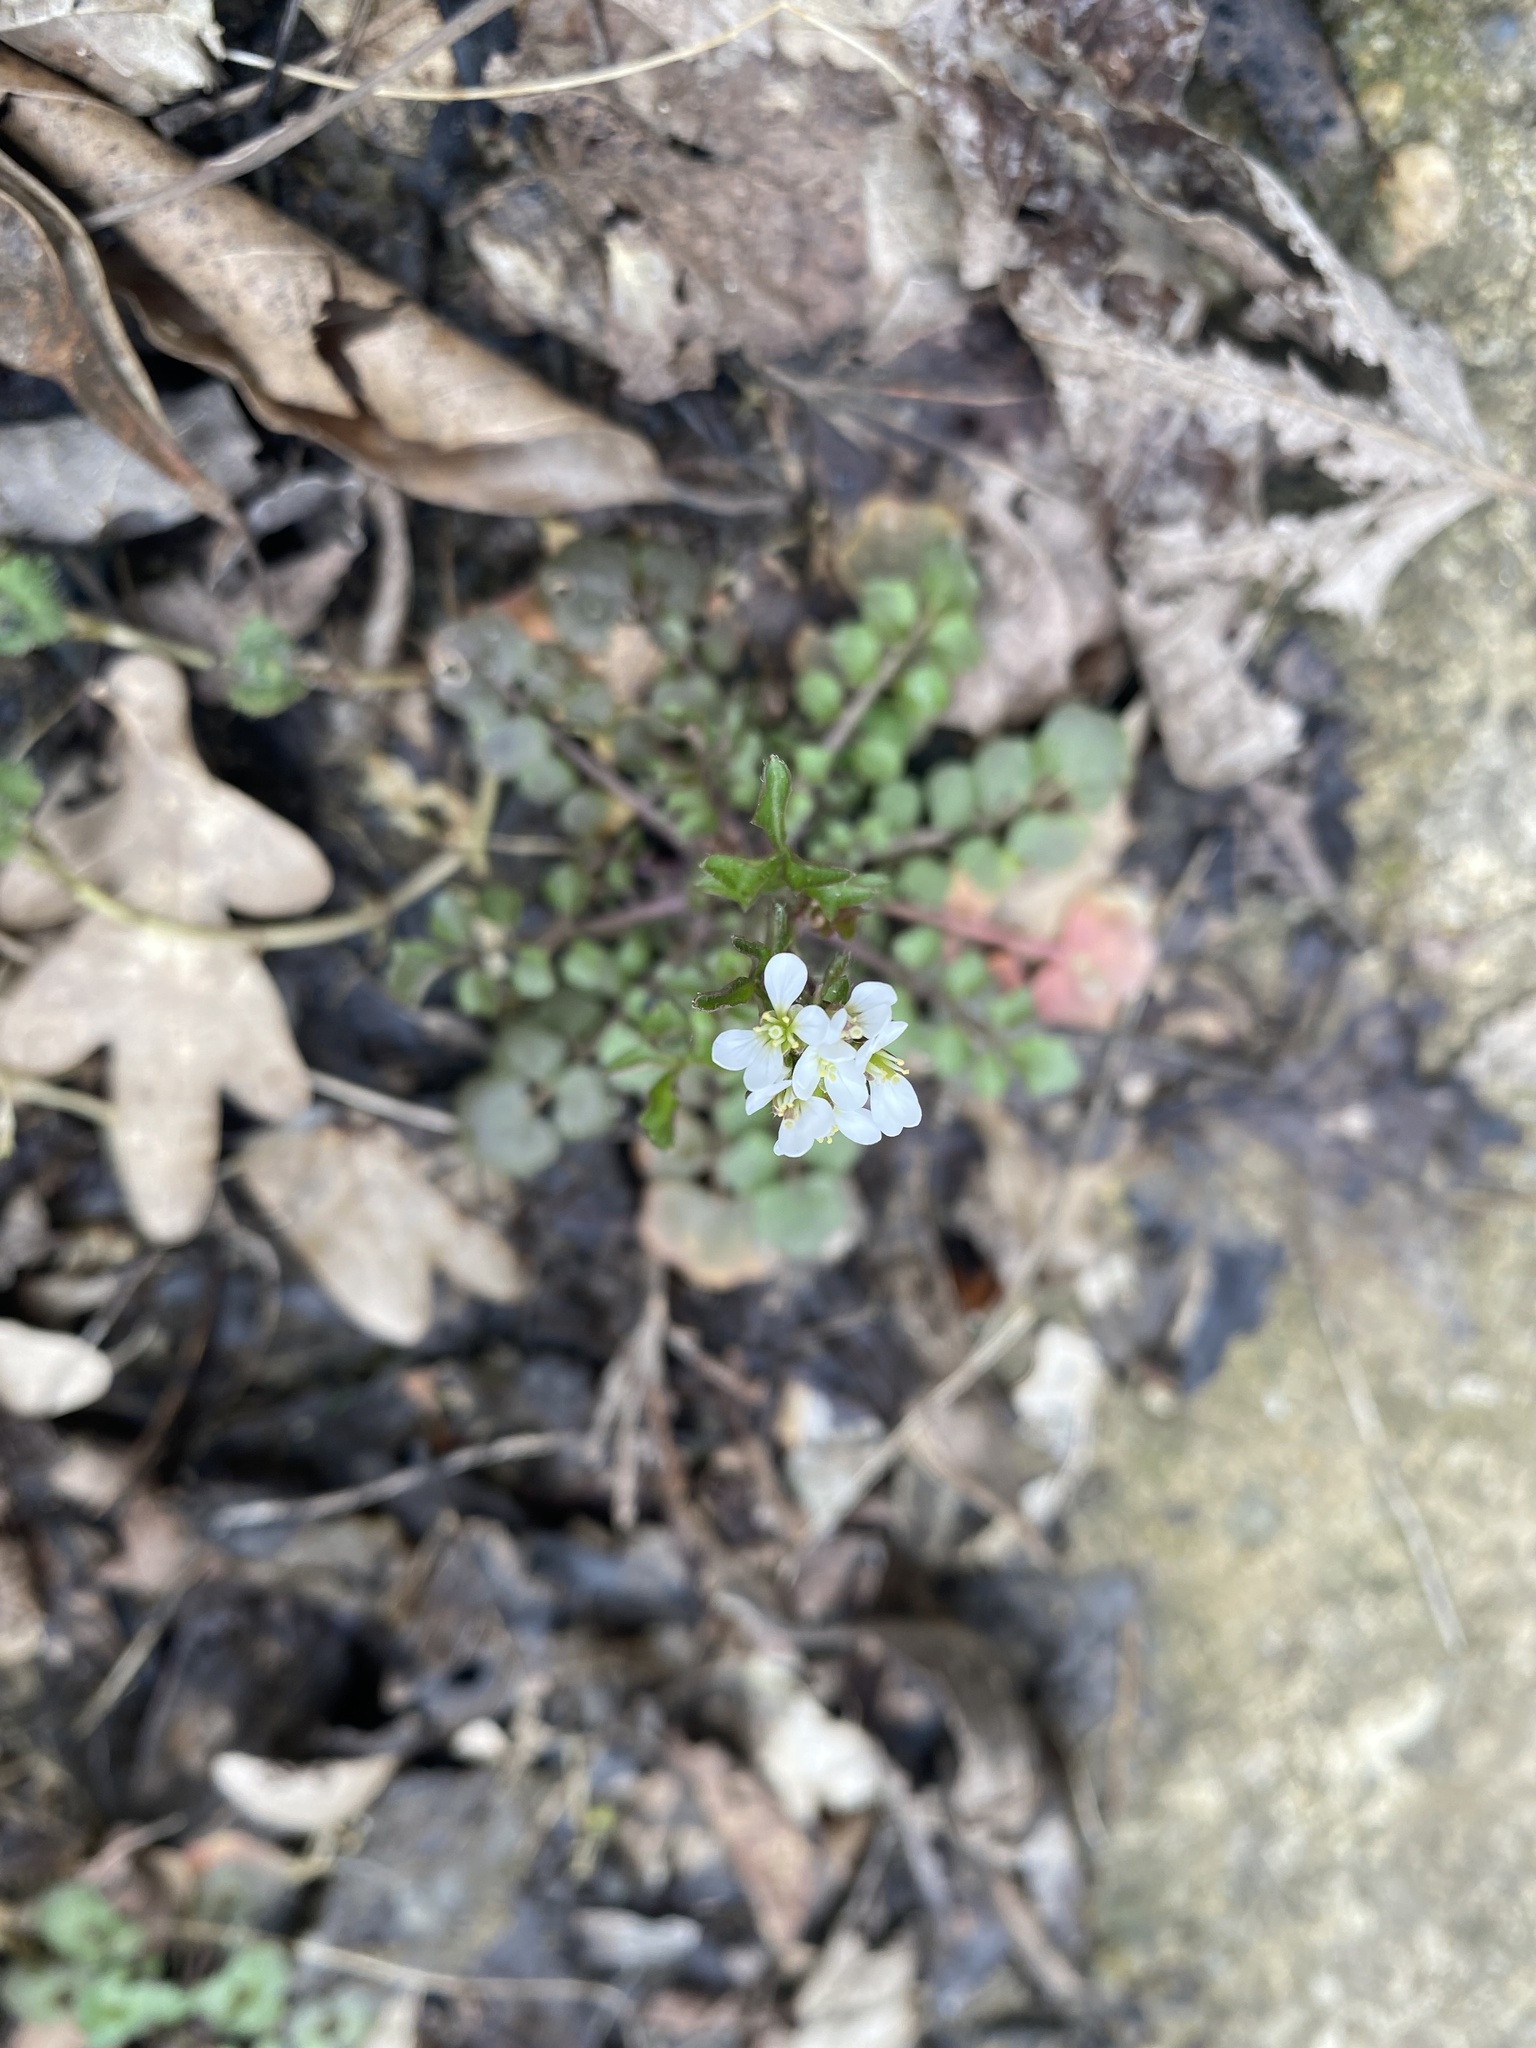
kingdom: Plantae
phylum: Tracheophyta
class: Magnoliopsida
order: Brassicales
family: Brassicaceae
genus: Cardamine
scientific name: Cardamine hirsuta
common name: Hairy bittercress
